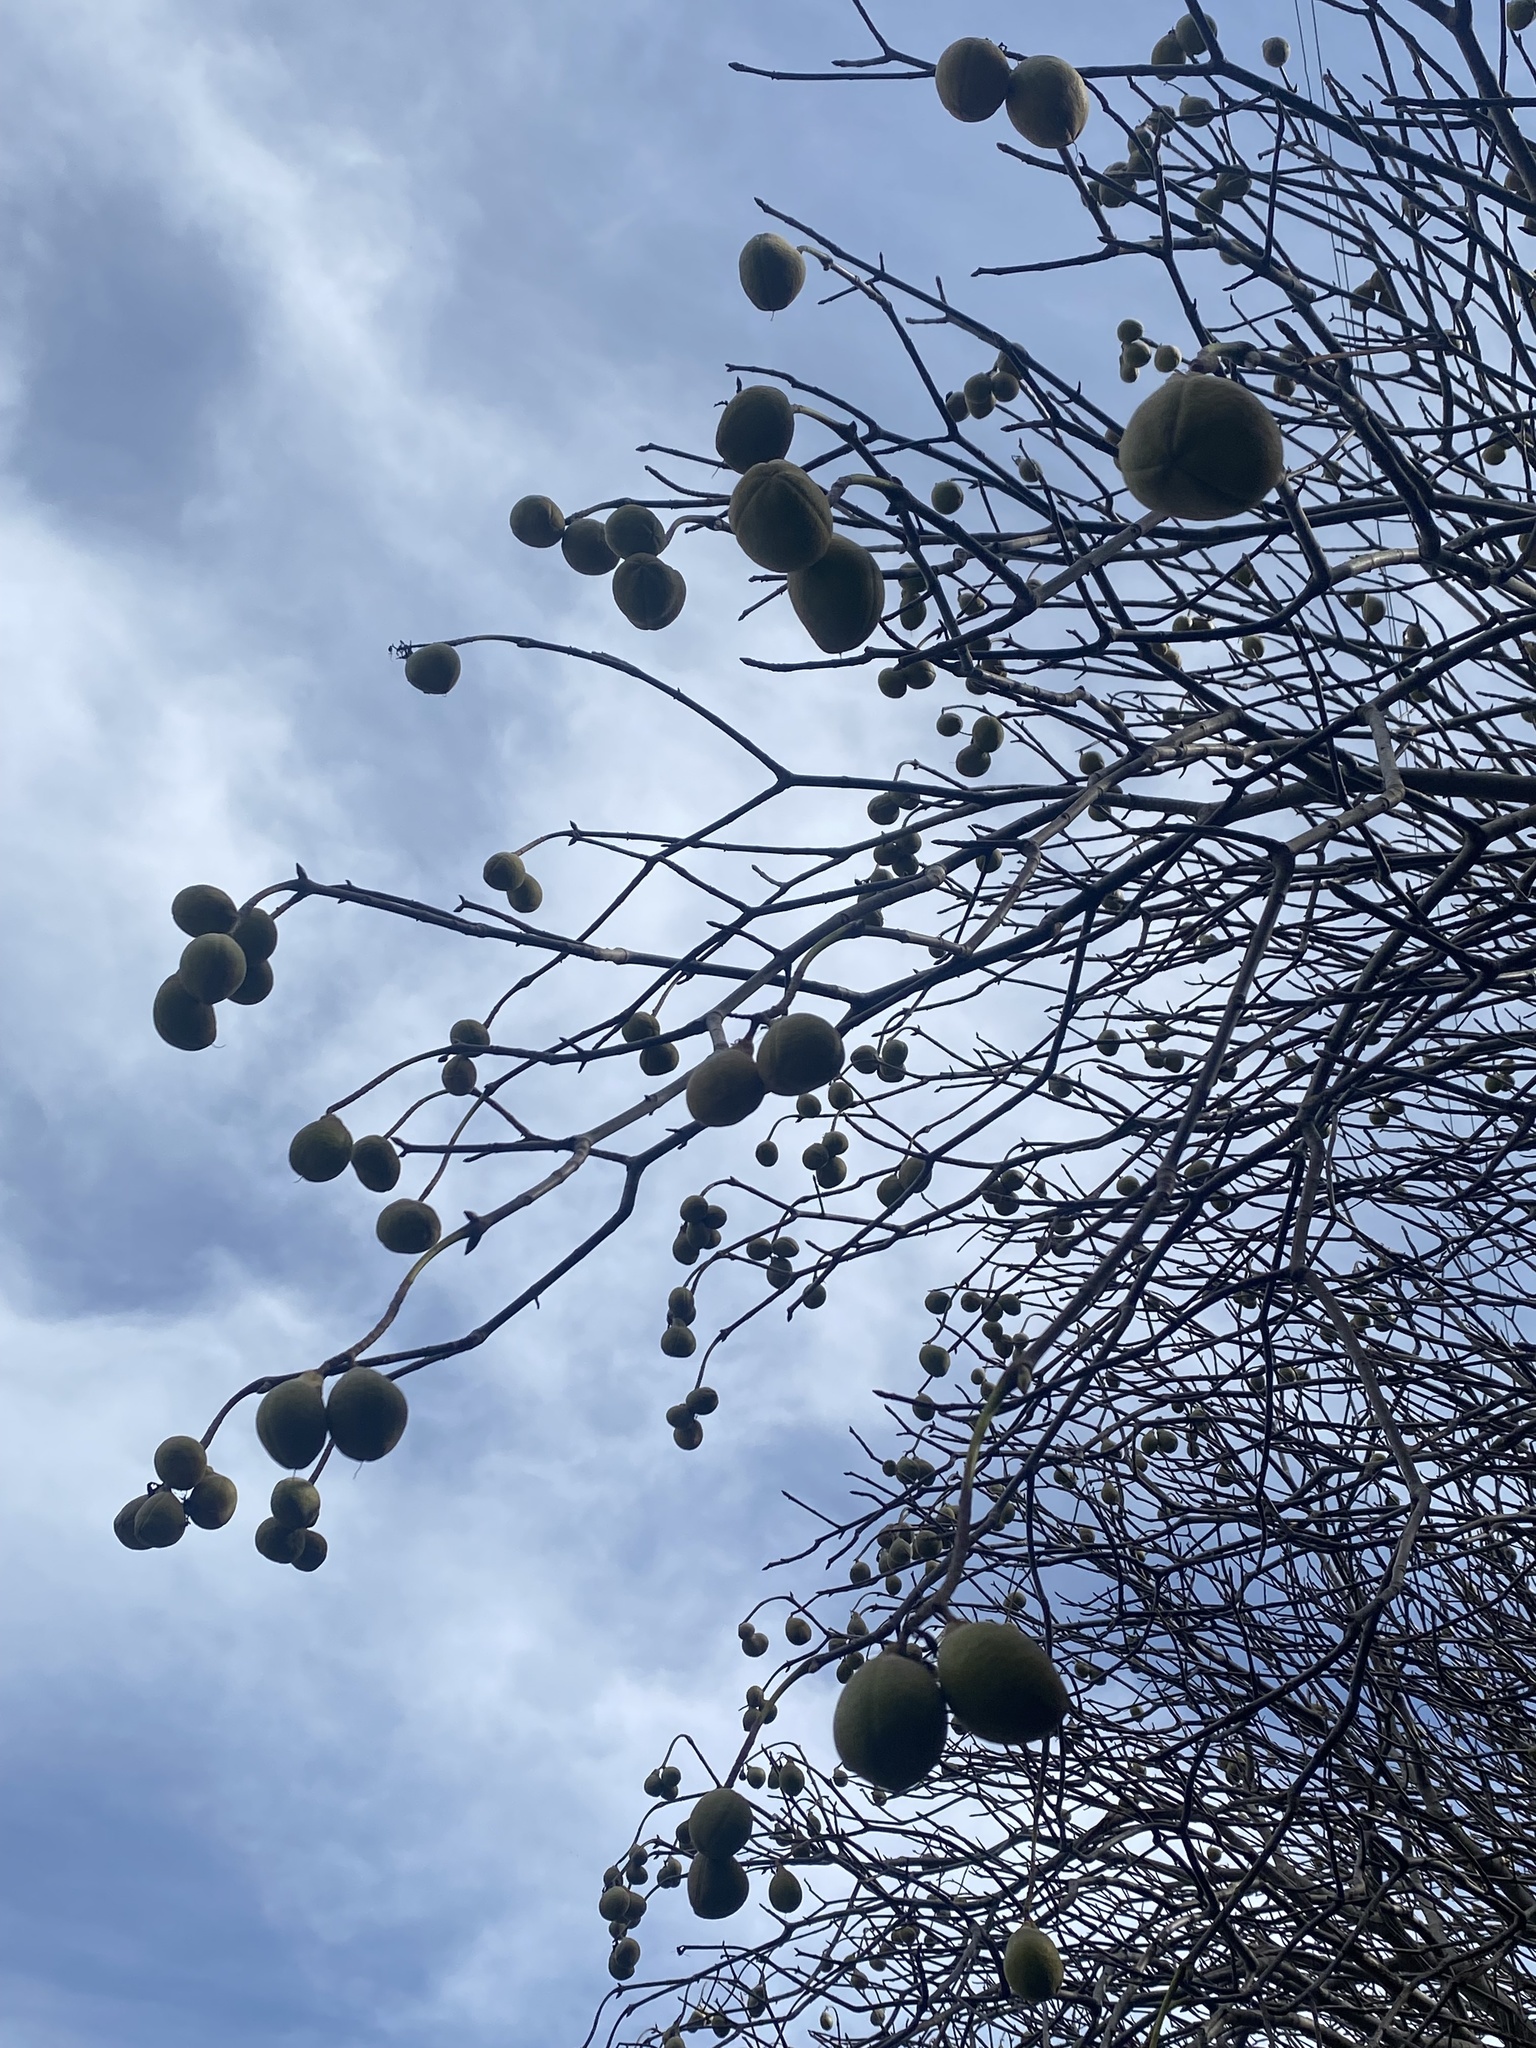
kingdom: Plantae
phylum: Tracheophyta
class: Magnoliopsida
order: Sapindales
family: Sapindaceae
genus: Aesculus
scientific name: Aesculus californica
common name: California buckeye
